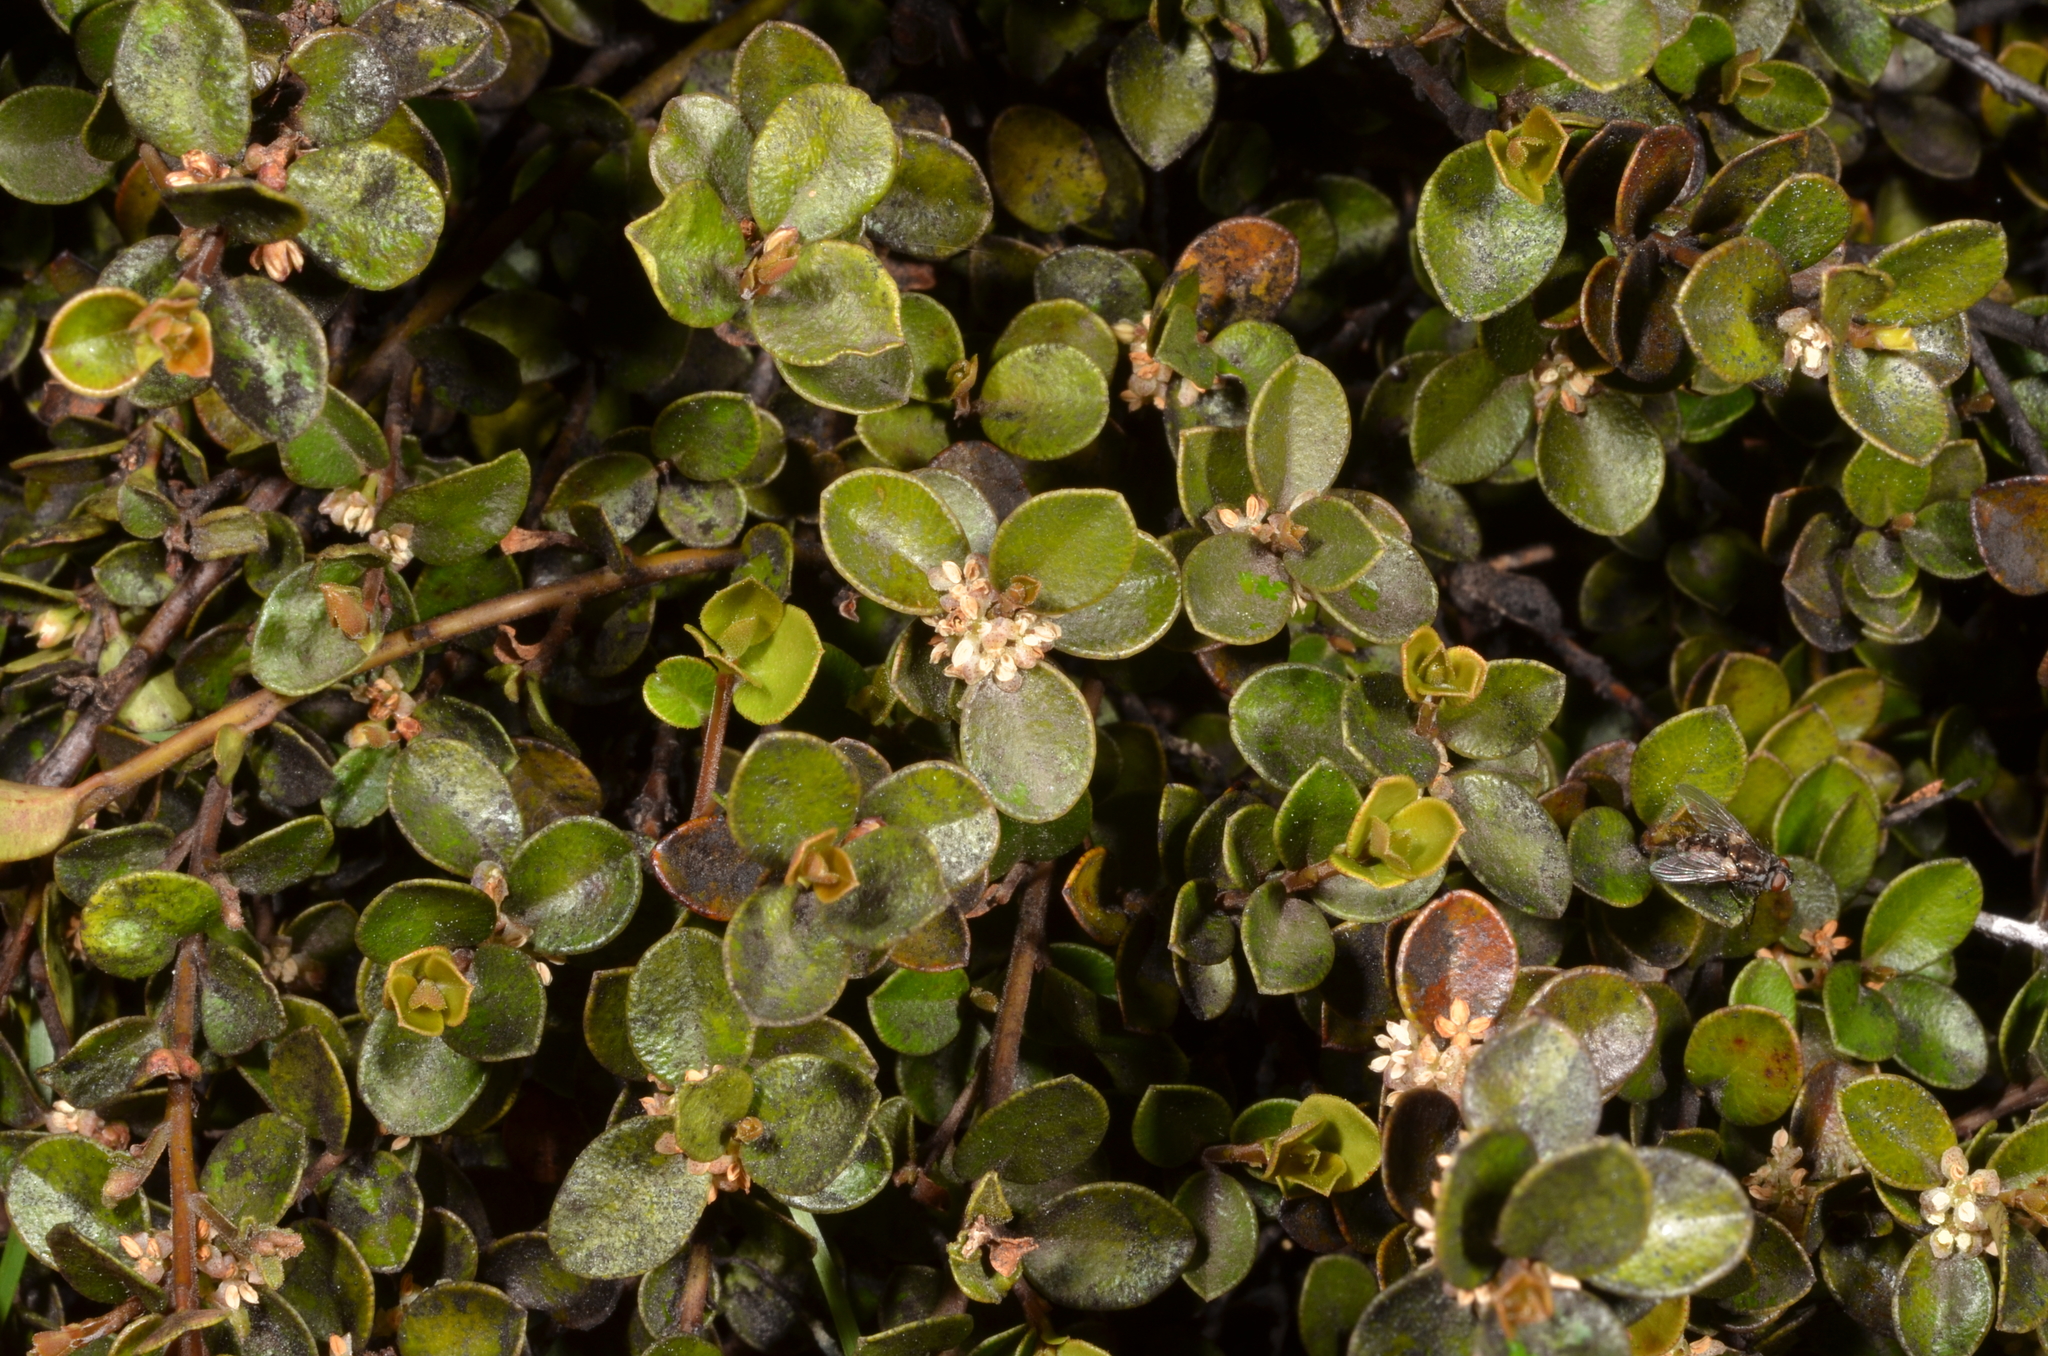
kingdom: Plantae
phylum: Tracheophyta
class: Magnoliopsida
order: Ericales
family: Primulaceae
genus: Myrsine
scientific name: Myrsine nummularia
